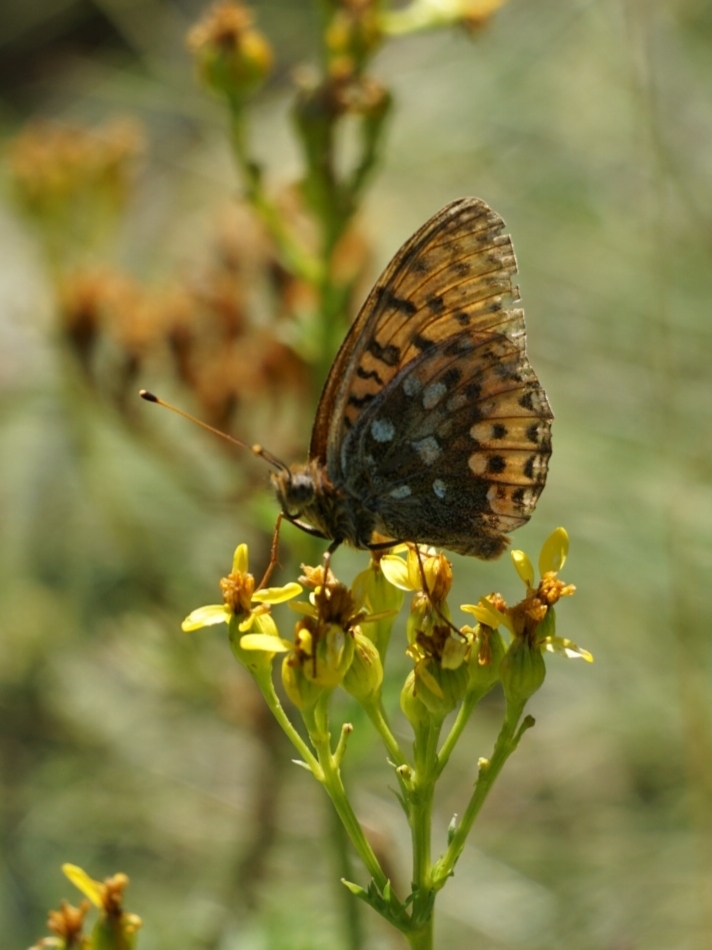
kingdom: Animalia
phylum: Arthropoda
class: Insecta
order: Lepidoptera
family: Nymphalidae
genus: Speyeria
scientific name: Speyeria aglaja
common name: Dark green fritillary
